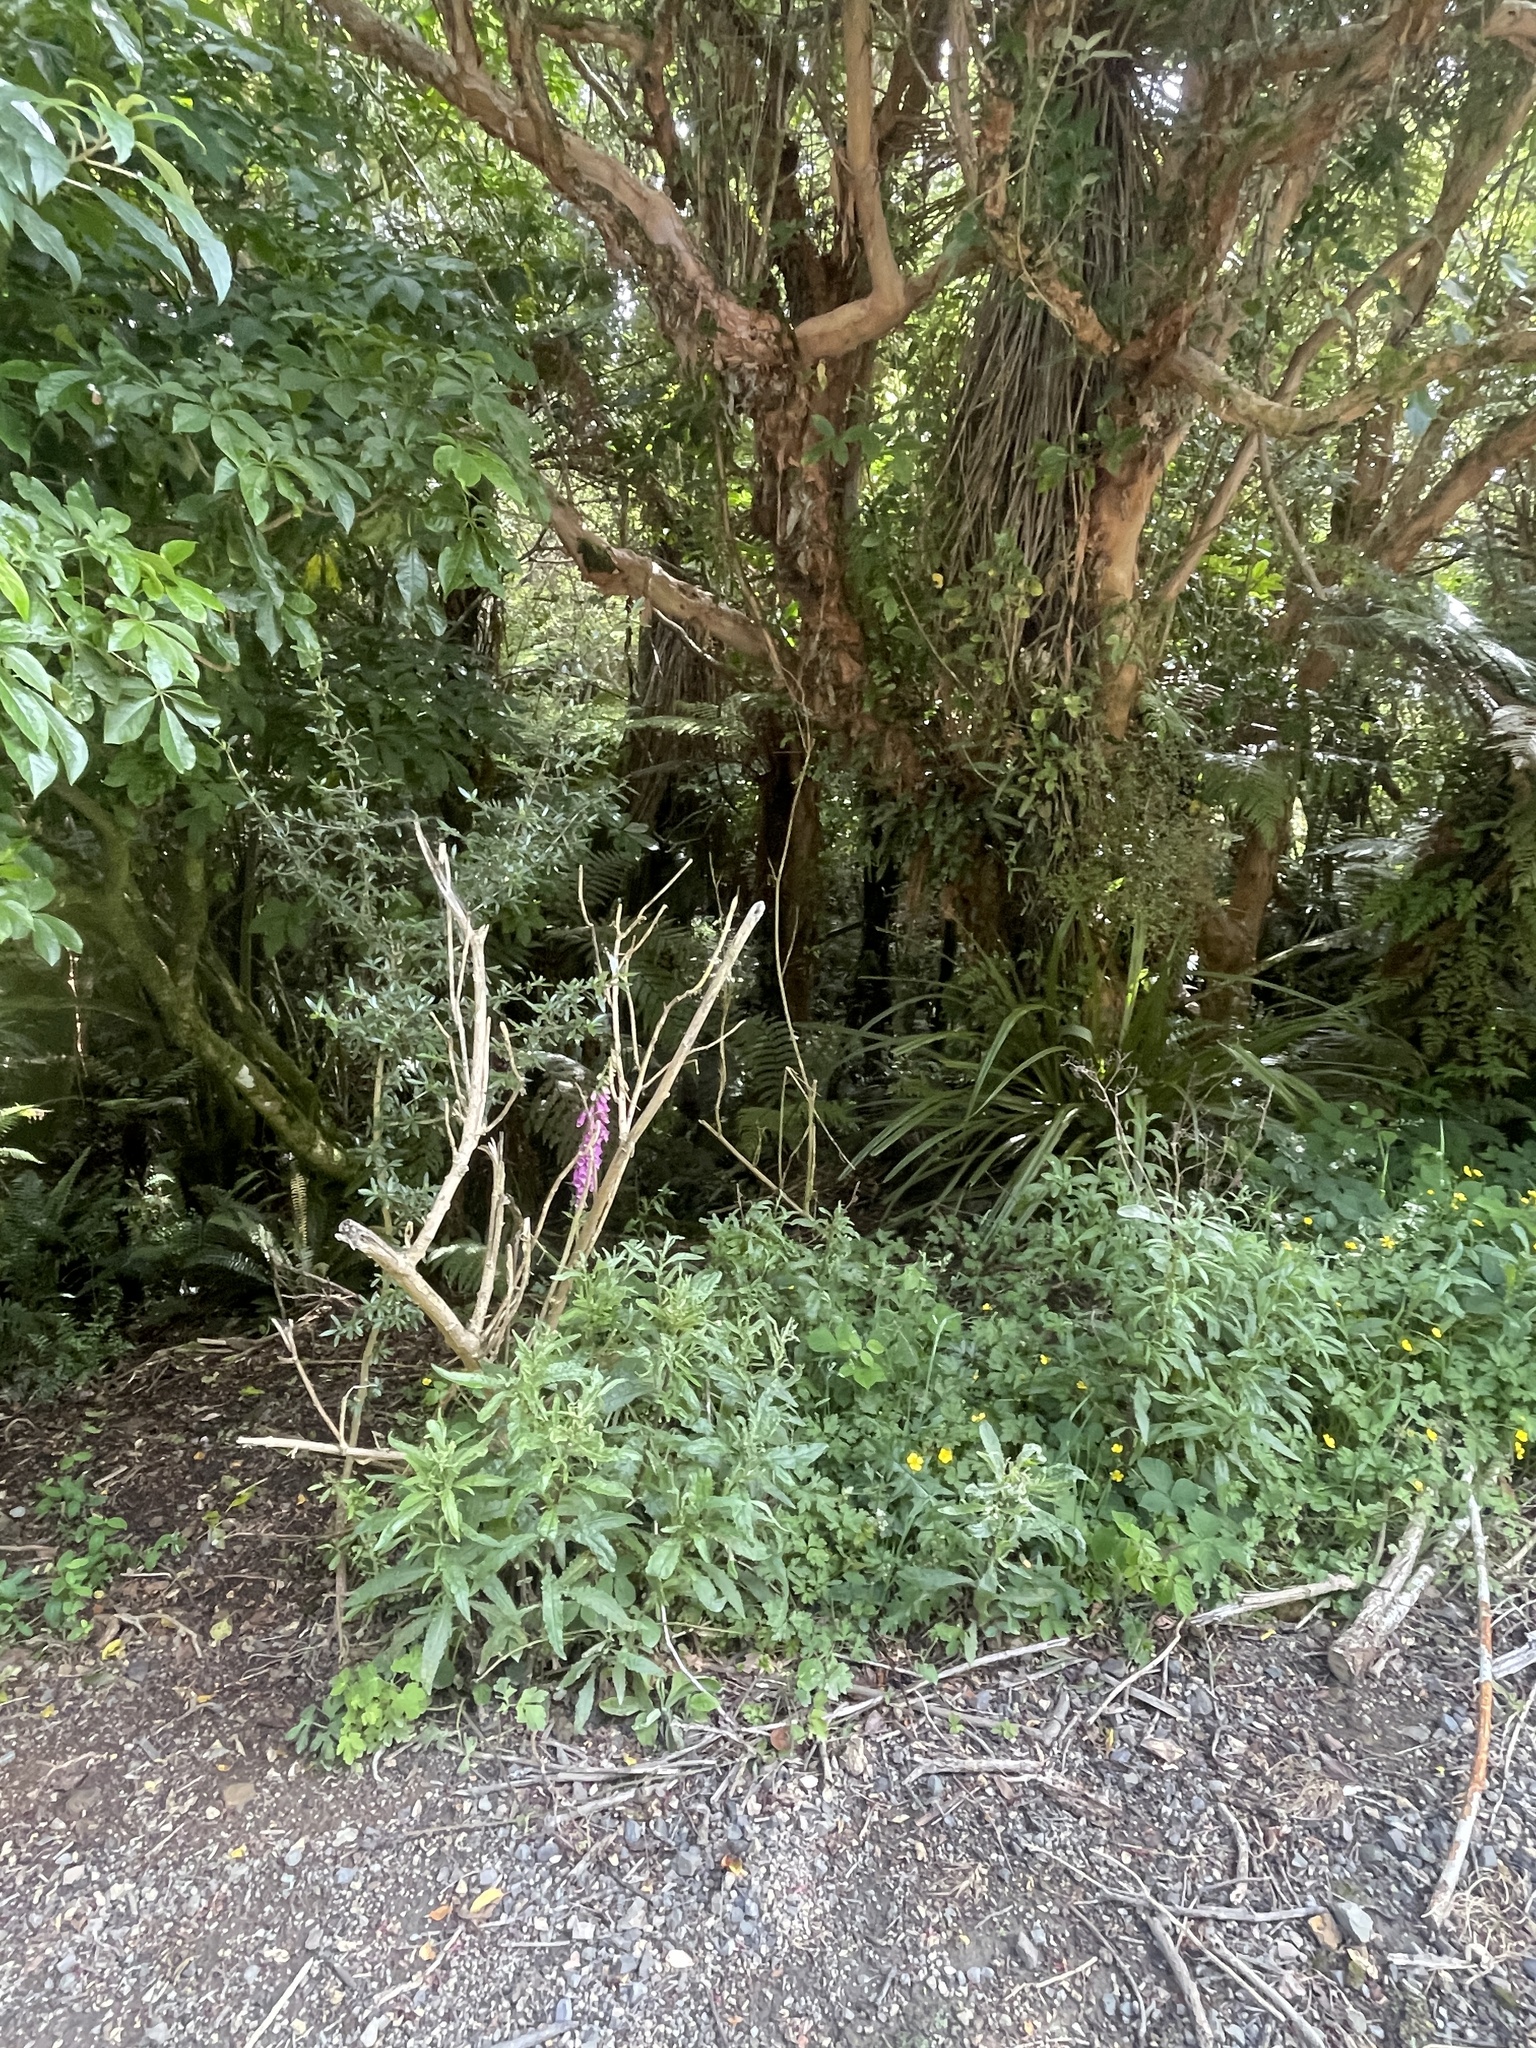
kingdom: Plantae
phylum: Tracheophyta
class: Magnoliopsida
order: Asterales
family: Asteraceae
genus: Cirsium
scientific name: Cirsium vulgare
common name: Bull thistle
